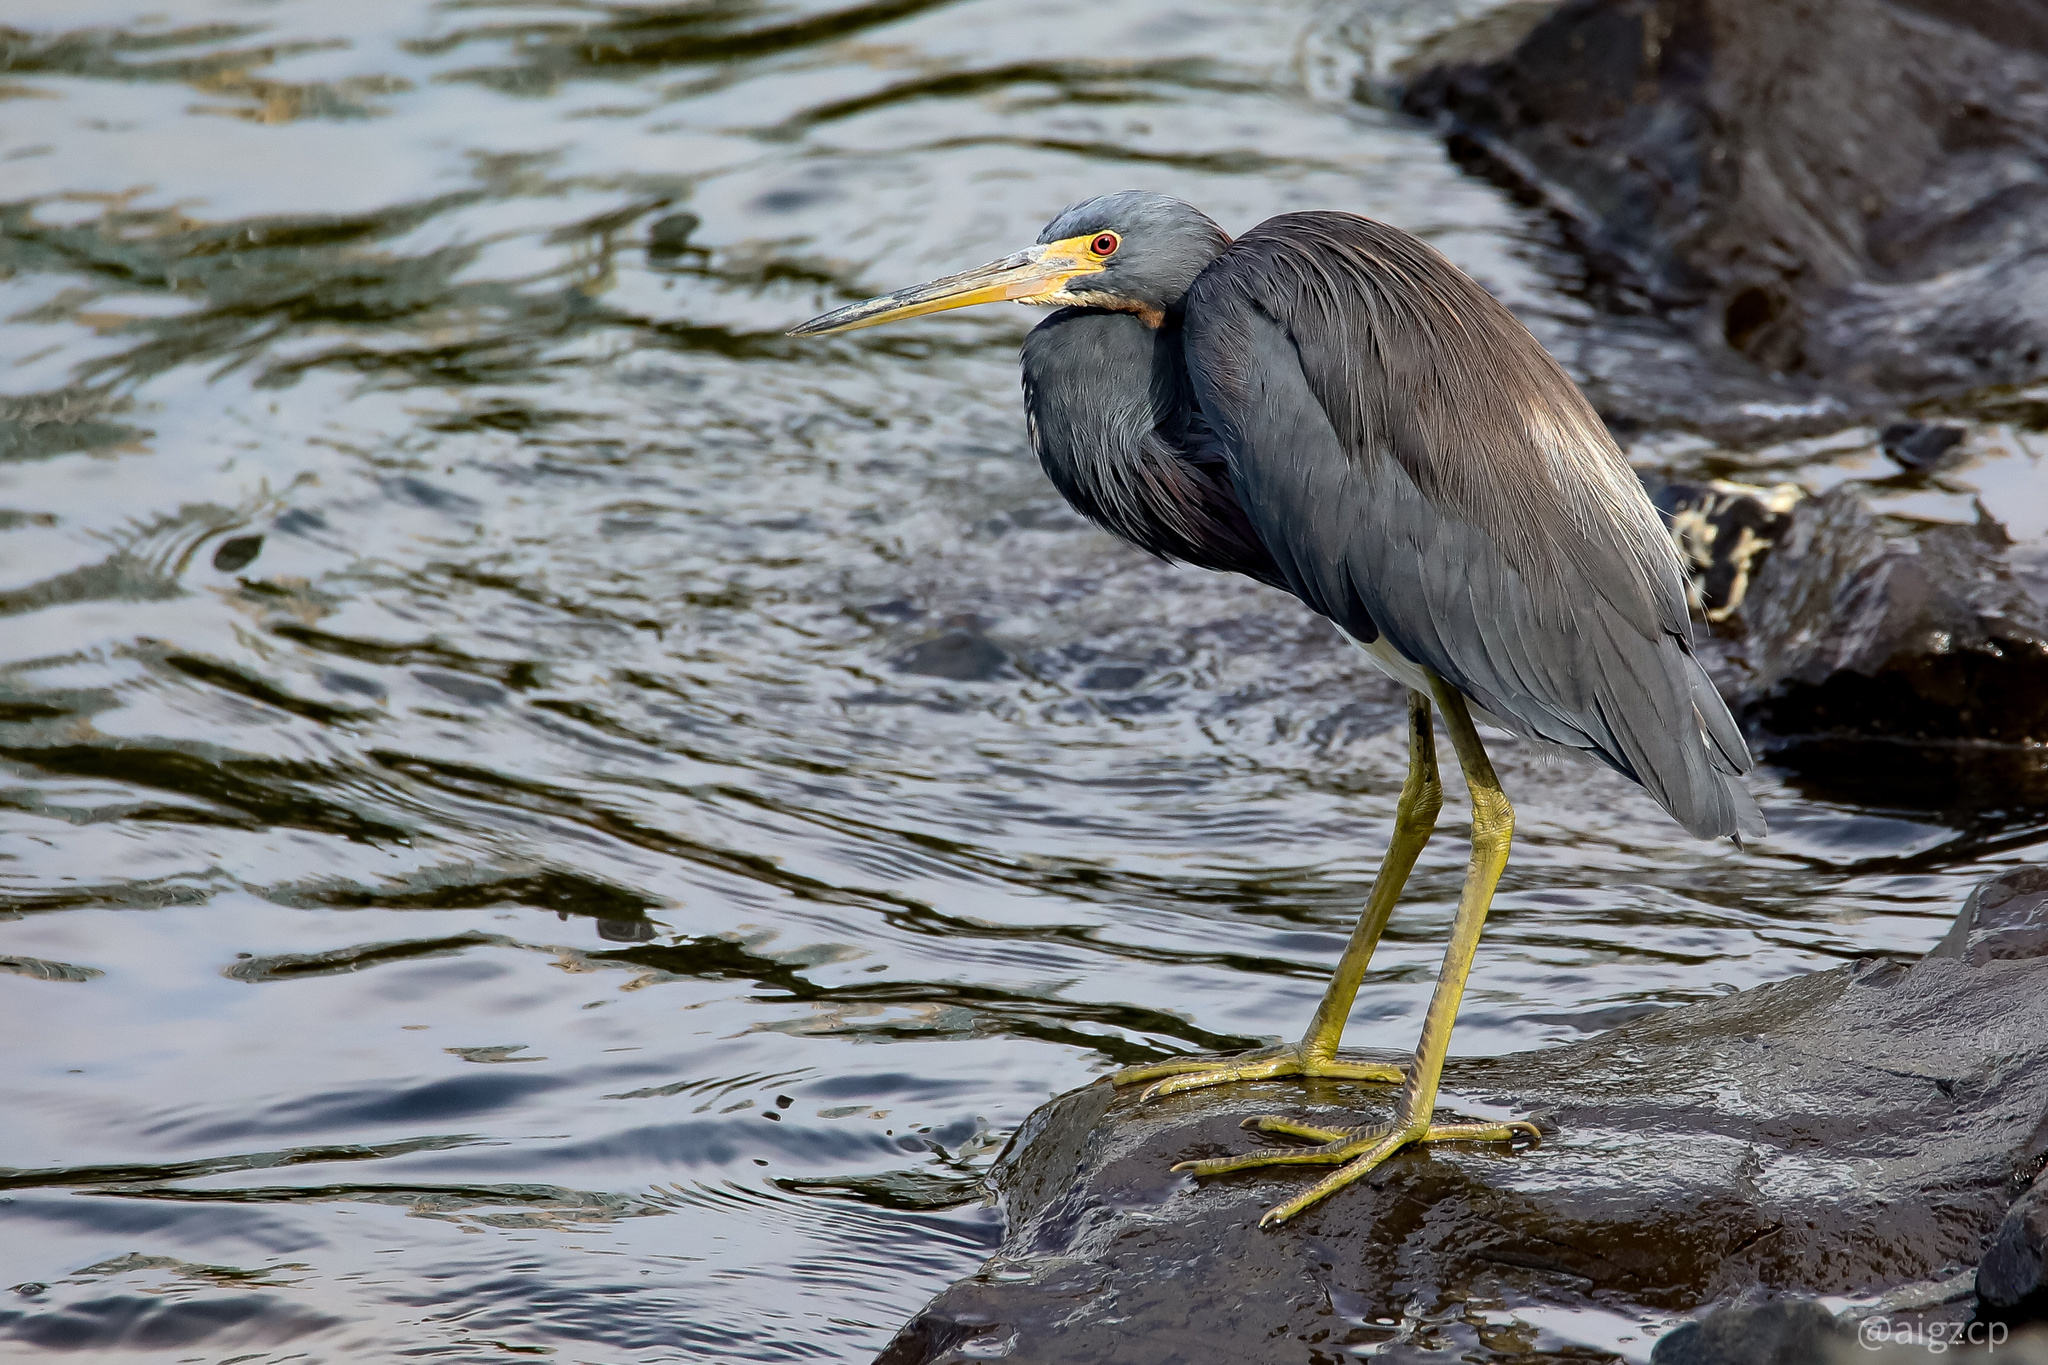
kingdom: Animalia
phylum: Chordata
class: Aves
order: Pelecaniformes
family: Ardeidae
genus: Egretta
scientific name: Egretta tricolor
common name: Tricolored heron
